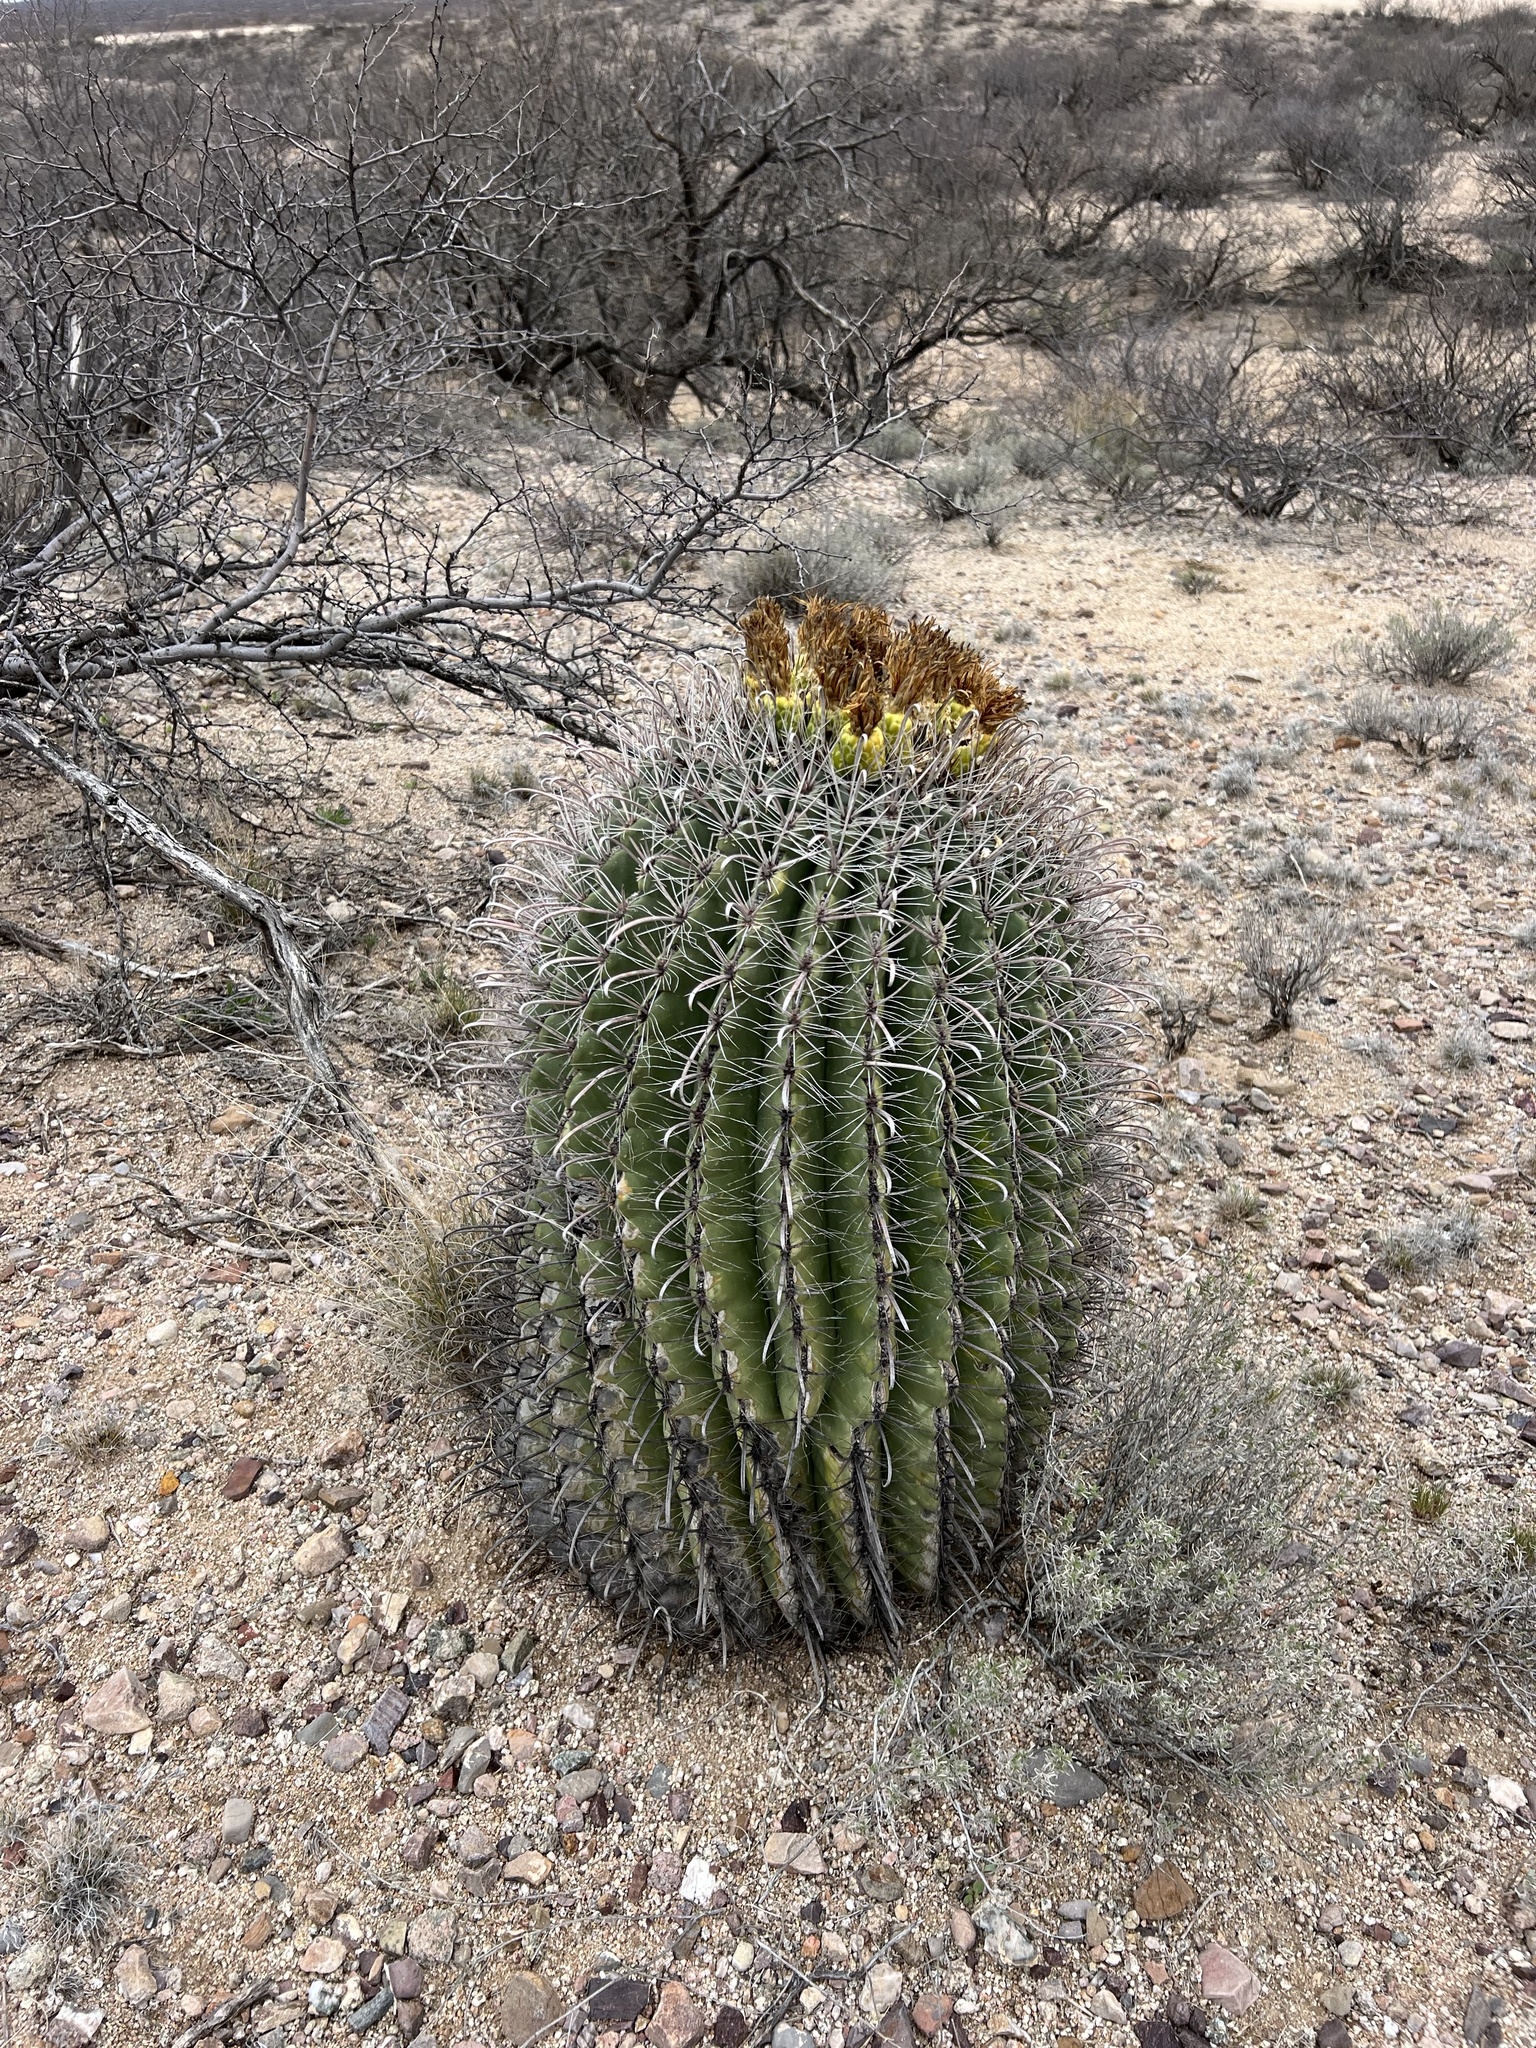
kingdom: Plantae
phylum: Tracheophyta
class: Magnoliopsida
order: Caryophyllales
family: Cactaceae
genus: Ferocactus
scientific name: Ferocactus wislizeni
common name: Candy barrel cactus
